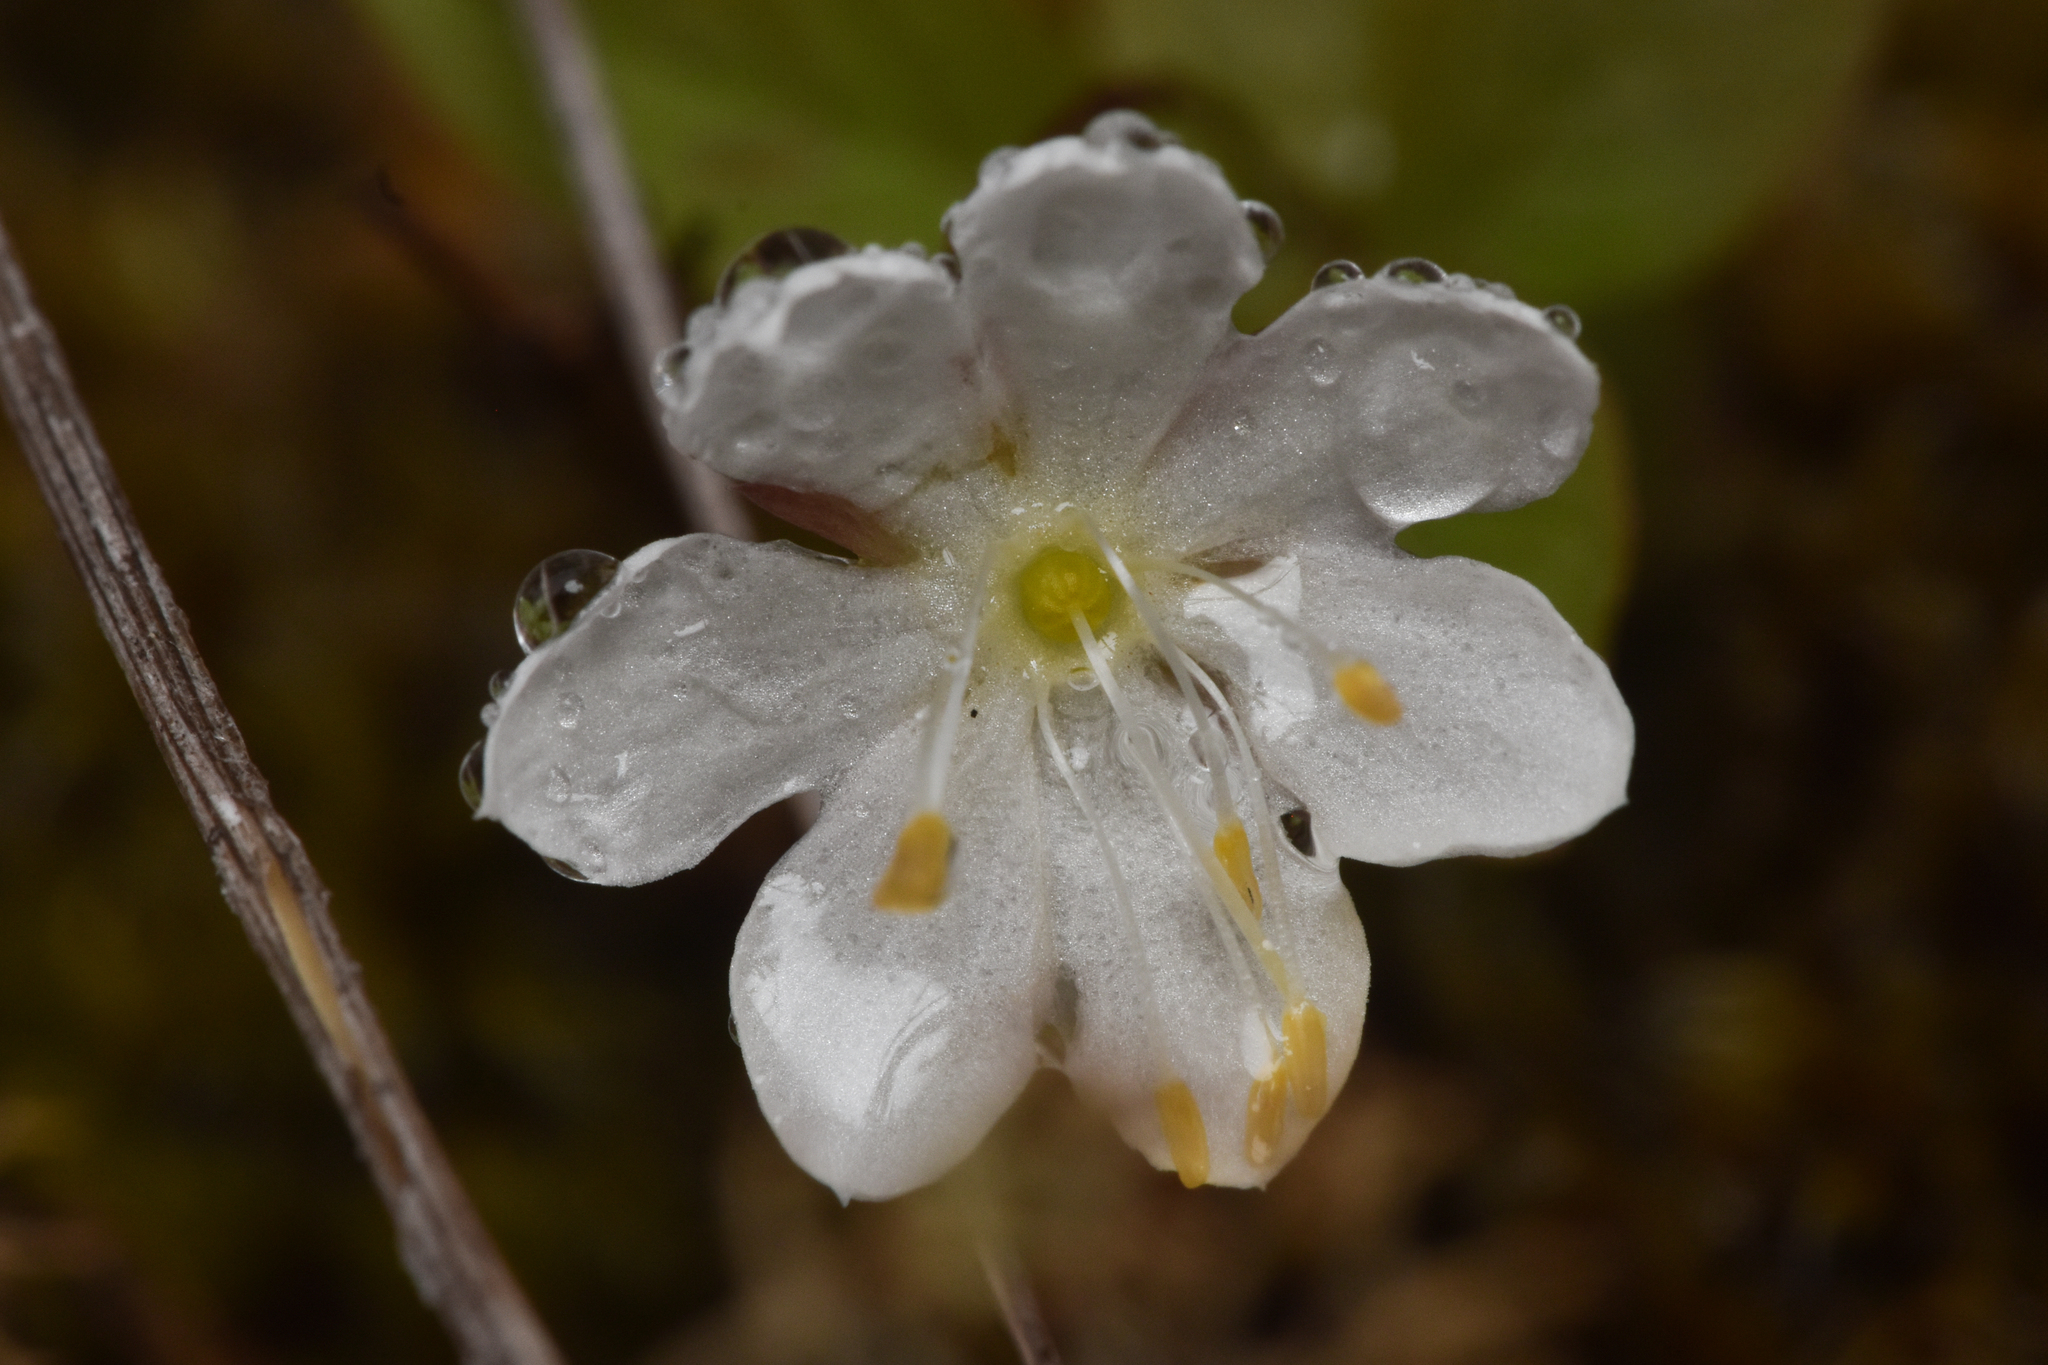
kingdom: Plantae
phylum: Tracheophyta
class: Magnoliopsida
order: Ericales
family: Primulaceae
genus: Lysimachia
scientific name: Lysimachia europaea
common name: Arctic starflower
